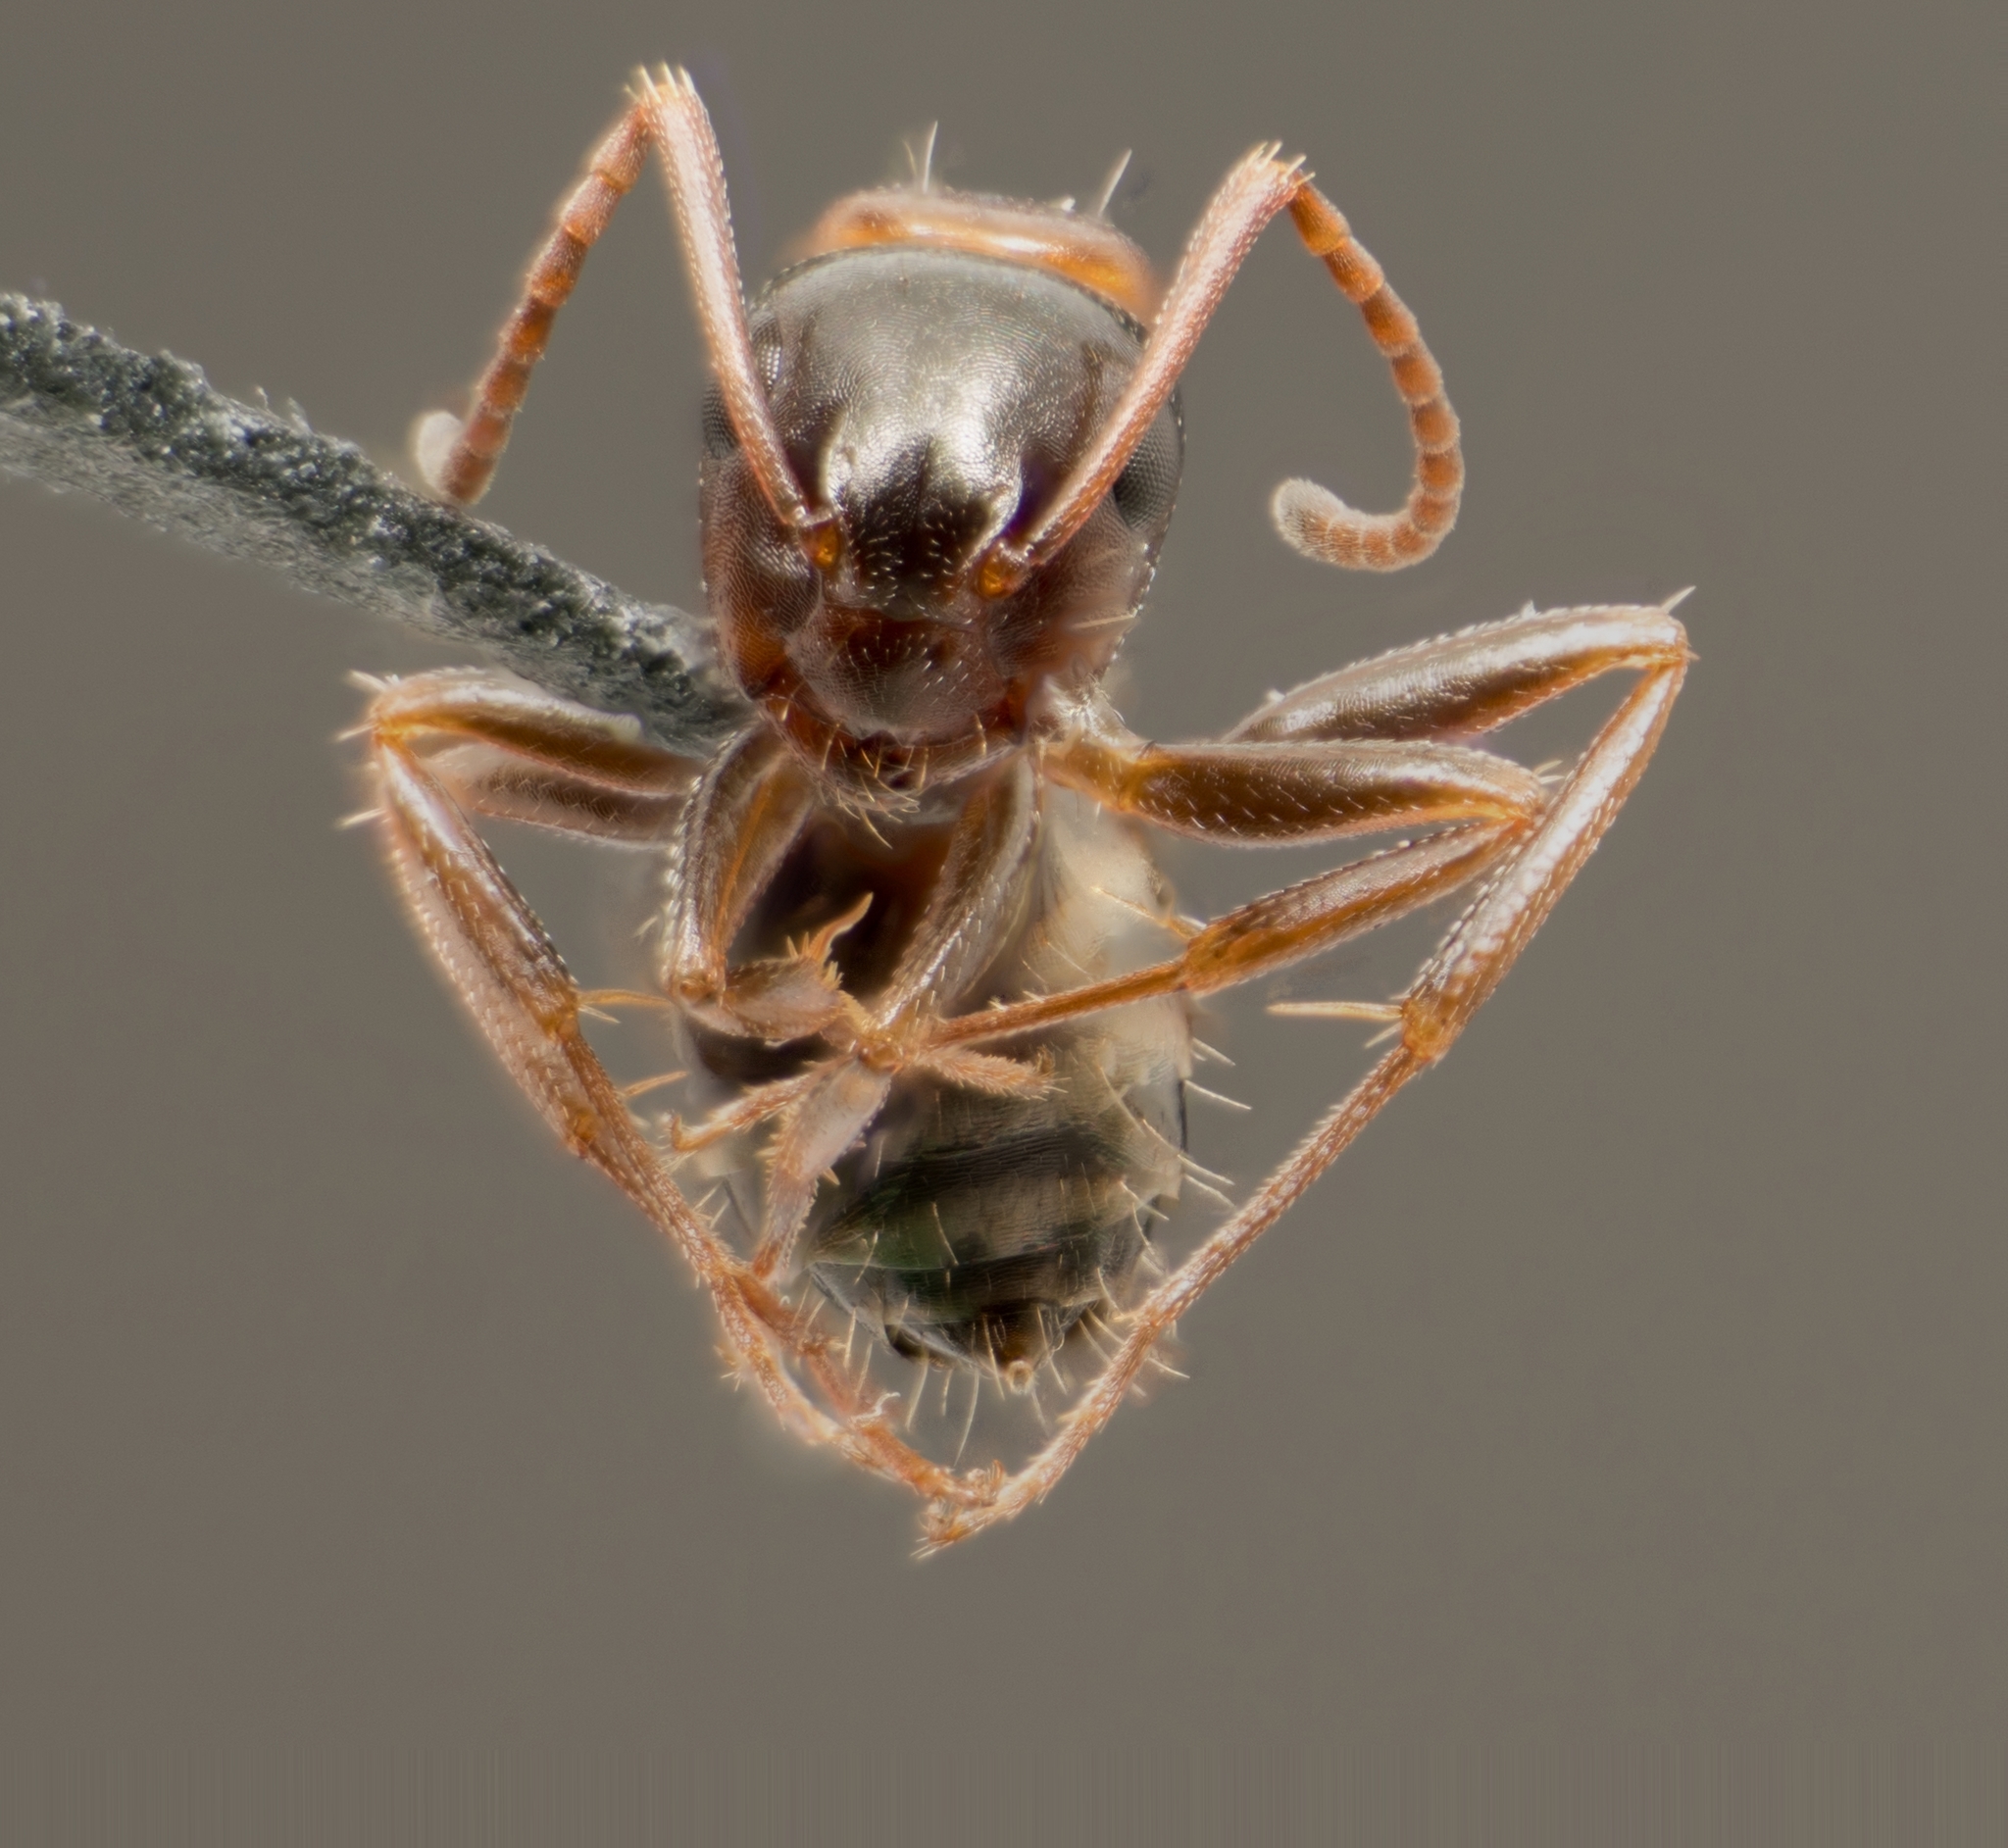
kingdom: Animalia
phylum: Arthropoda
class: Insecta
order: Hymenoptera
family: Formicidae
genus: Camponotus
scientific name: Camponotus essigi
